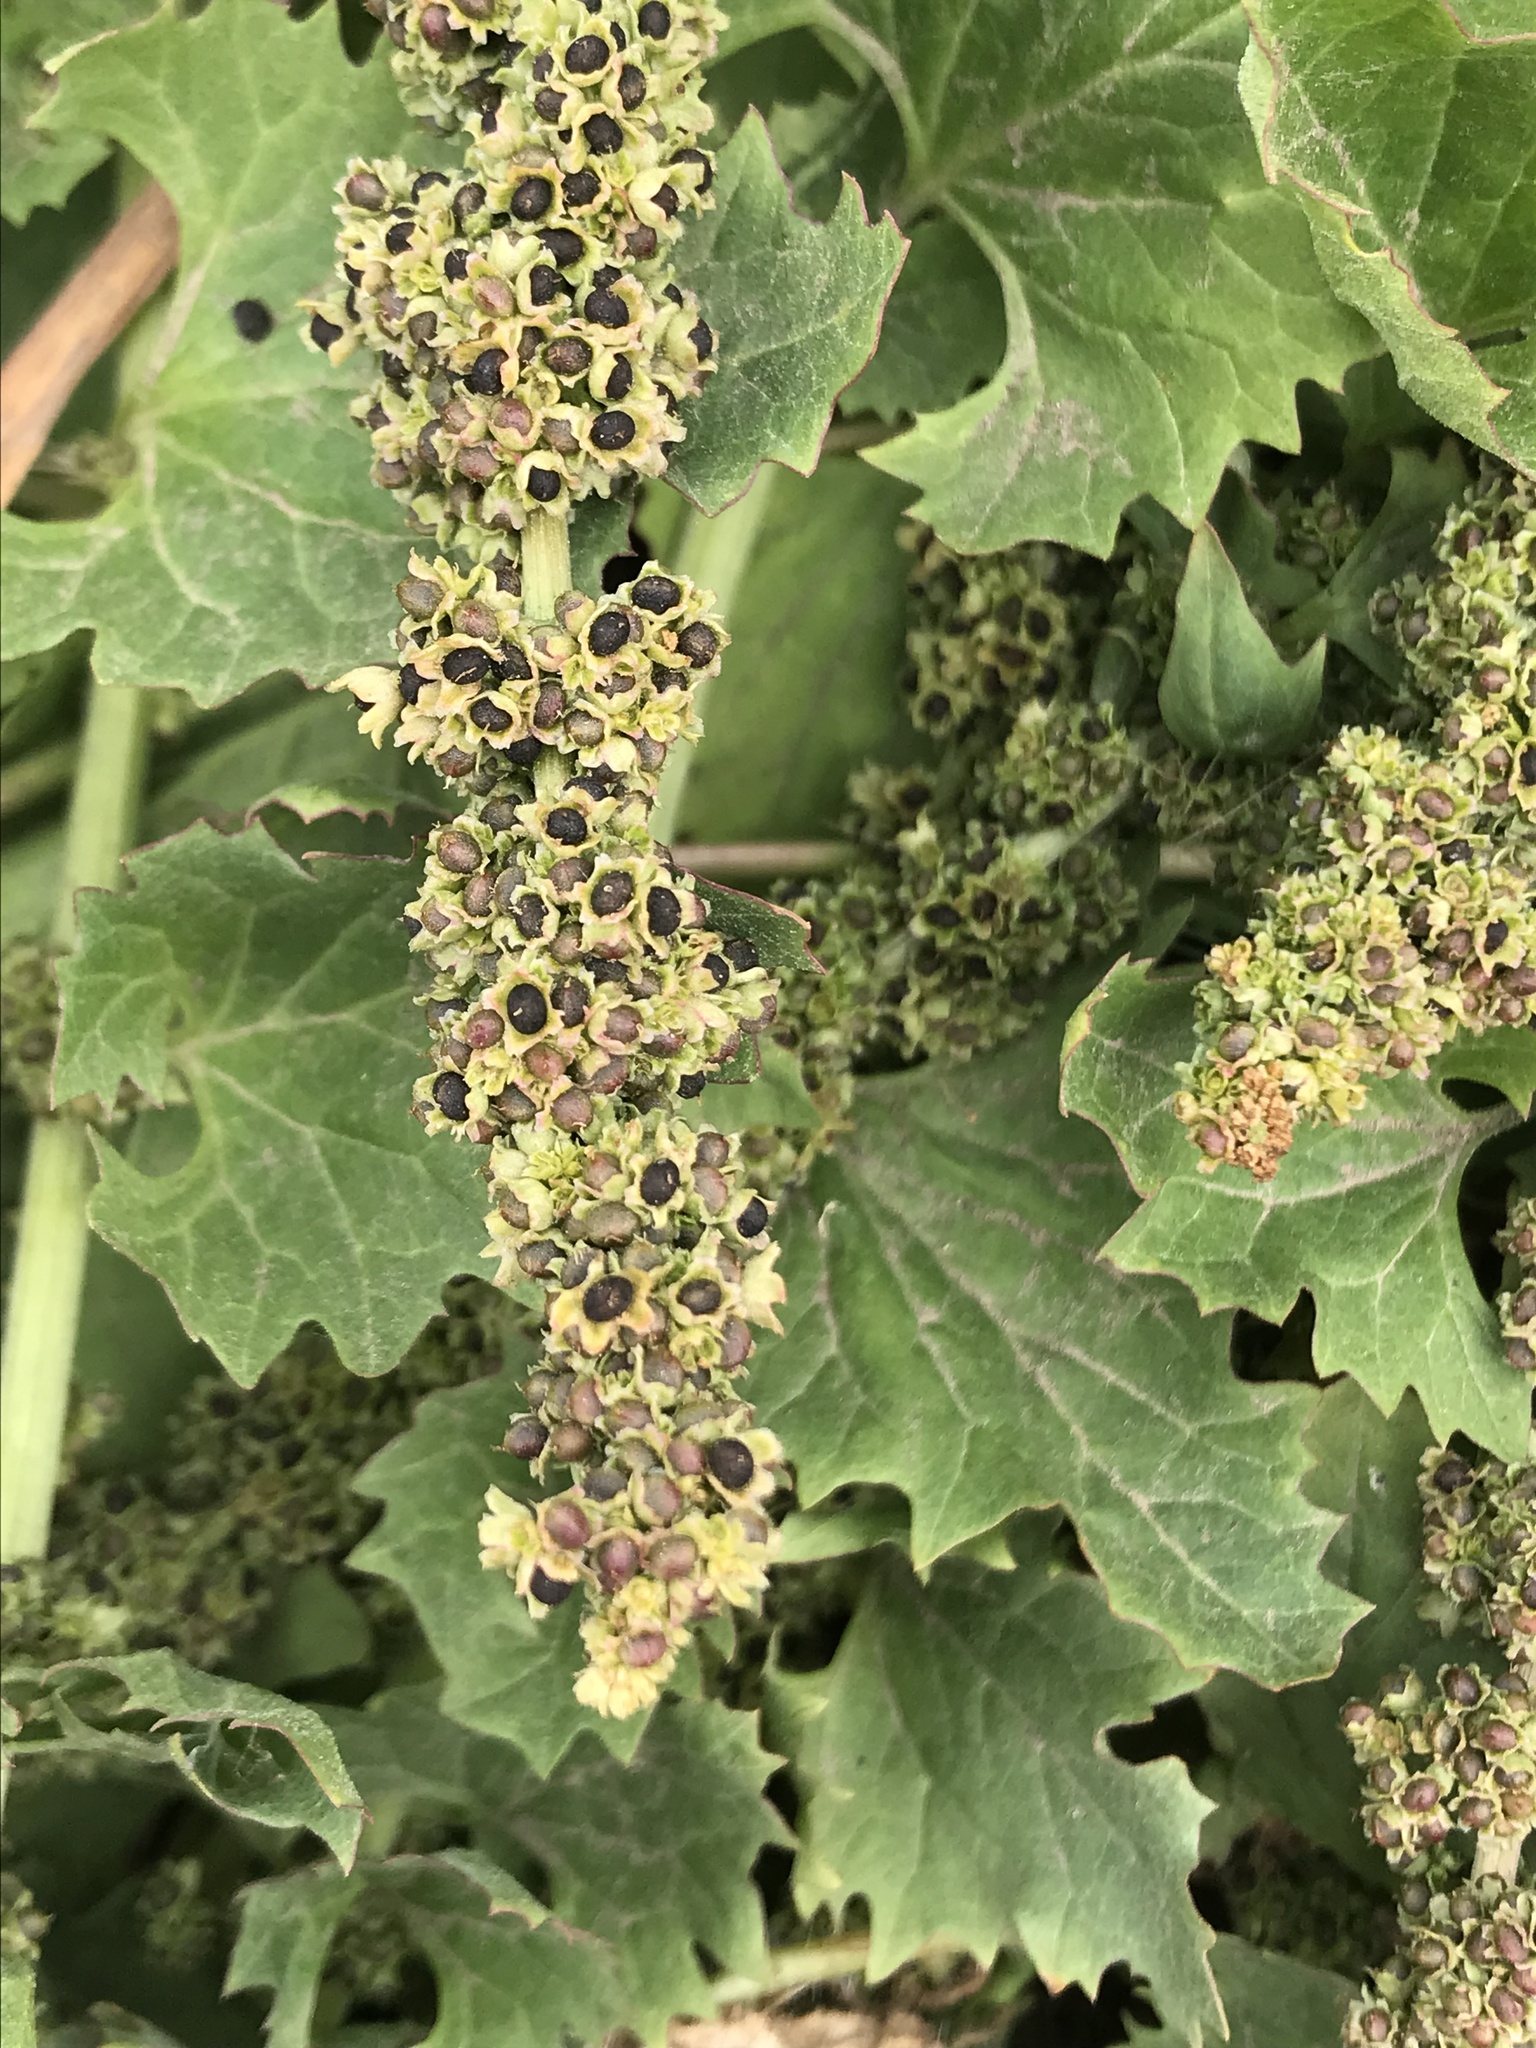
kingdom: Plantae
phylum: Tracheophyta
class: Magnoliopsida
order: Caryophyllales
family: Amaranthaceae
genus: Blitum
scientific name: Blitum californicum
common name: California goosefoot
